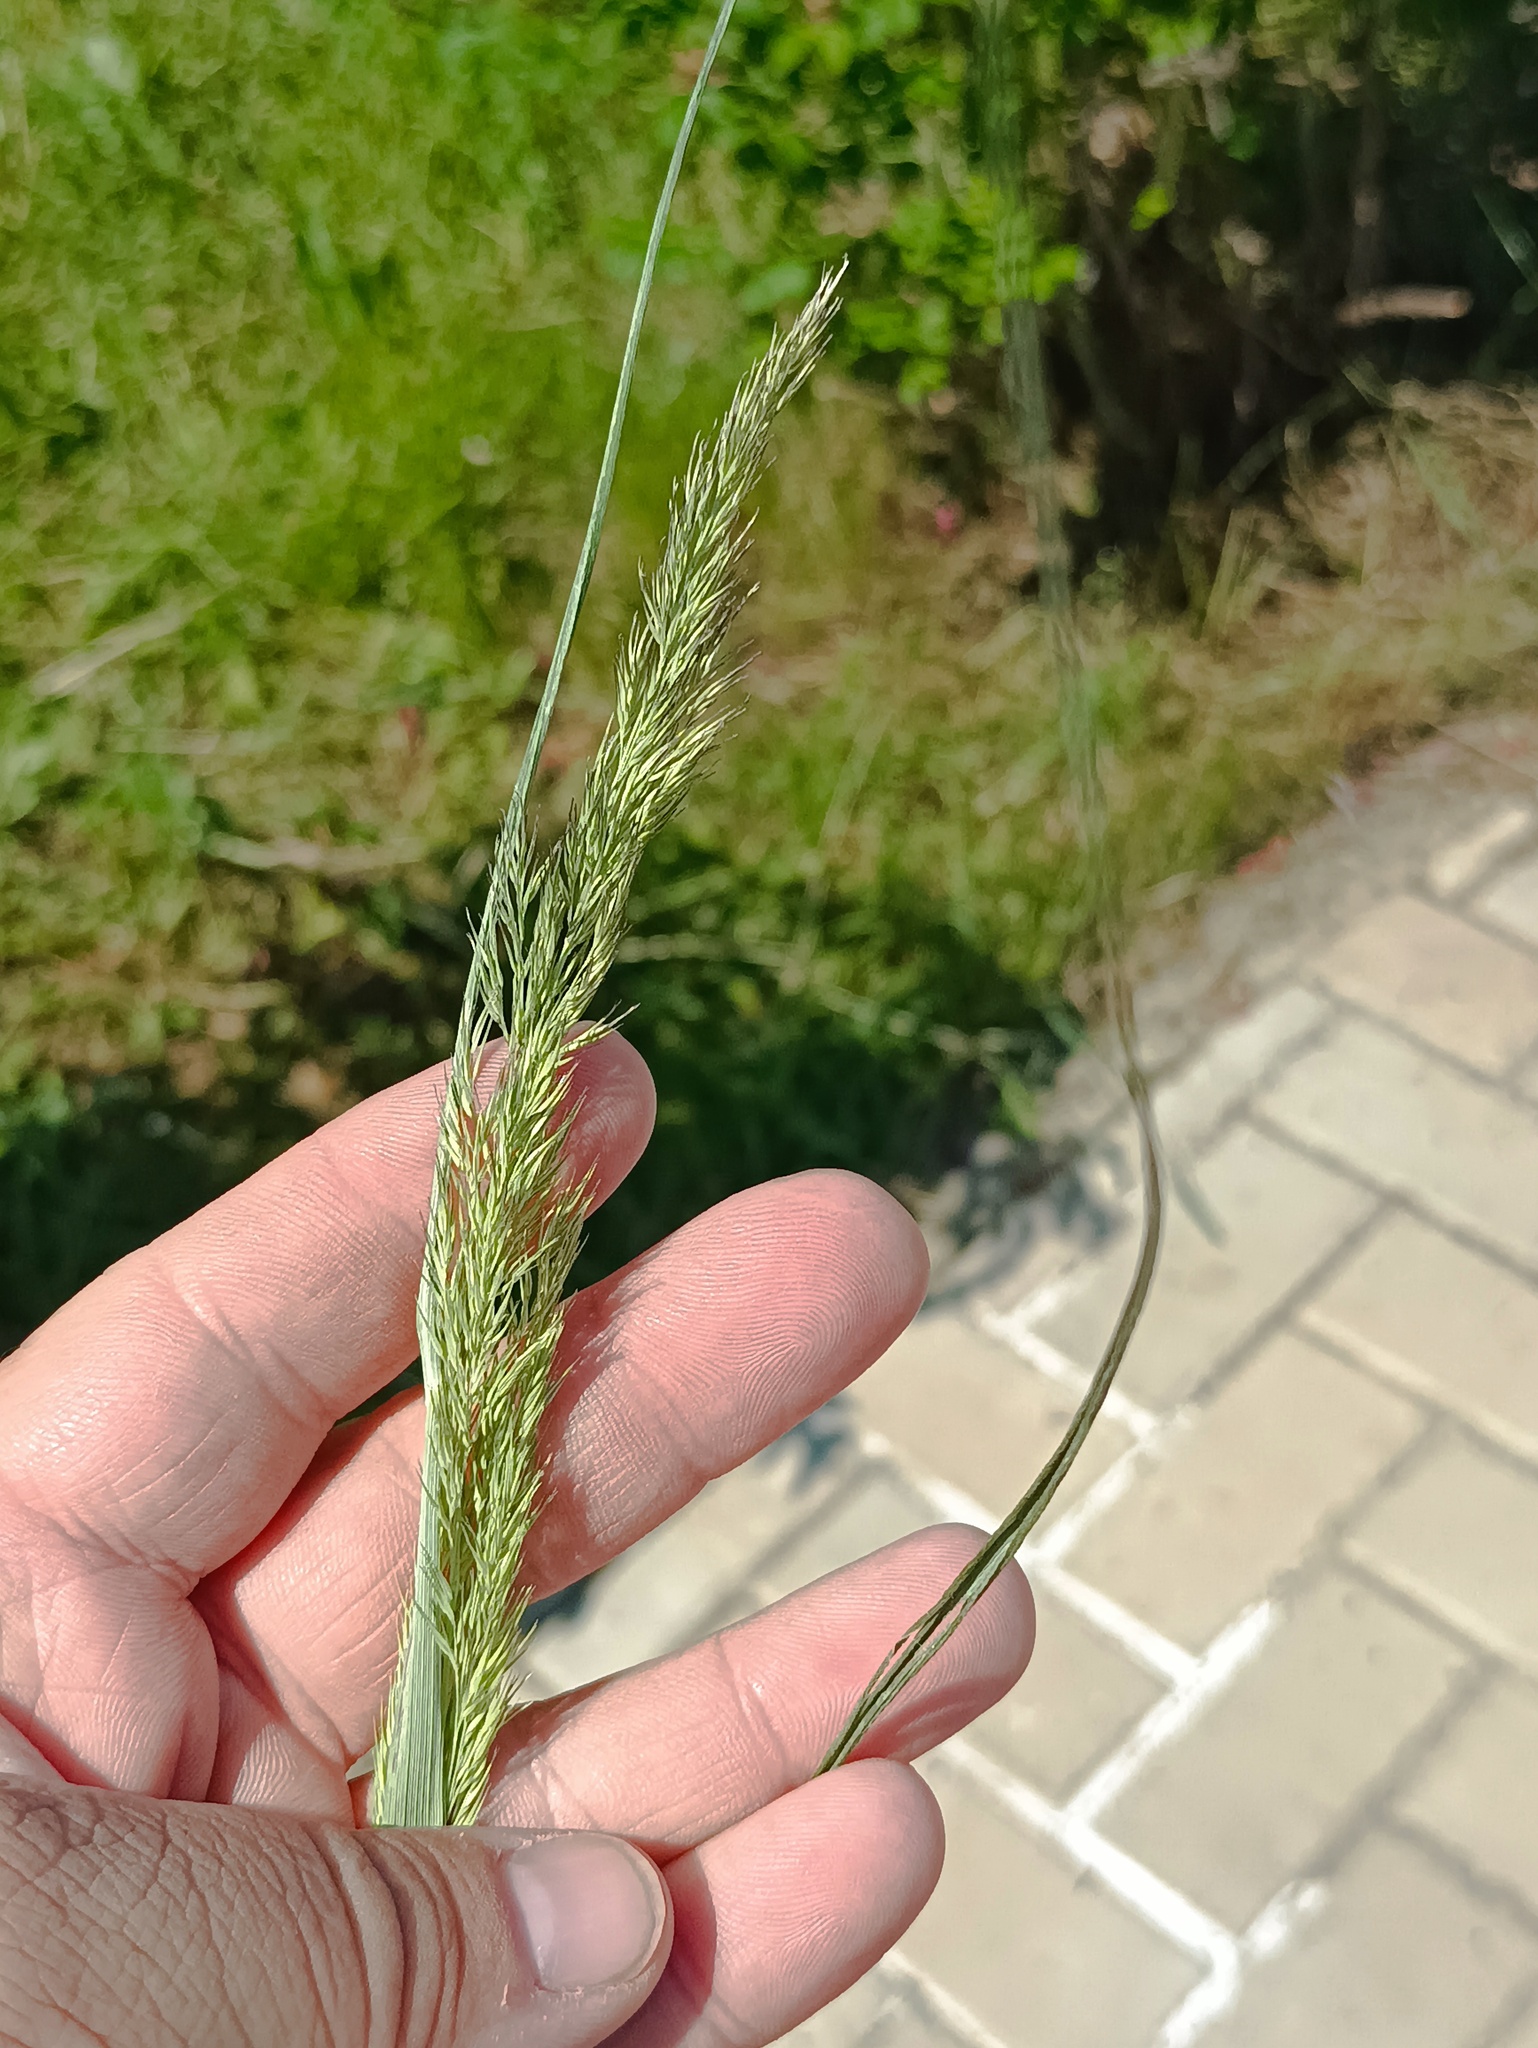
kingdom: Plantae
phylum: Tracheophyta
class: Liliopsida
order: Poales
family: Poaceae
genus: Calamagrostis
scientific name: Calamagrostis epigejos
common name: Wood small-reed
